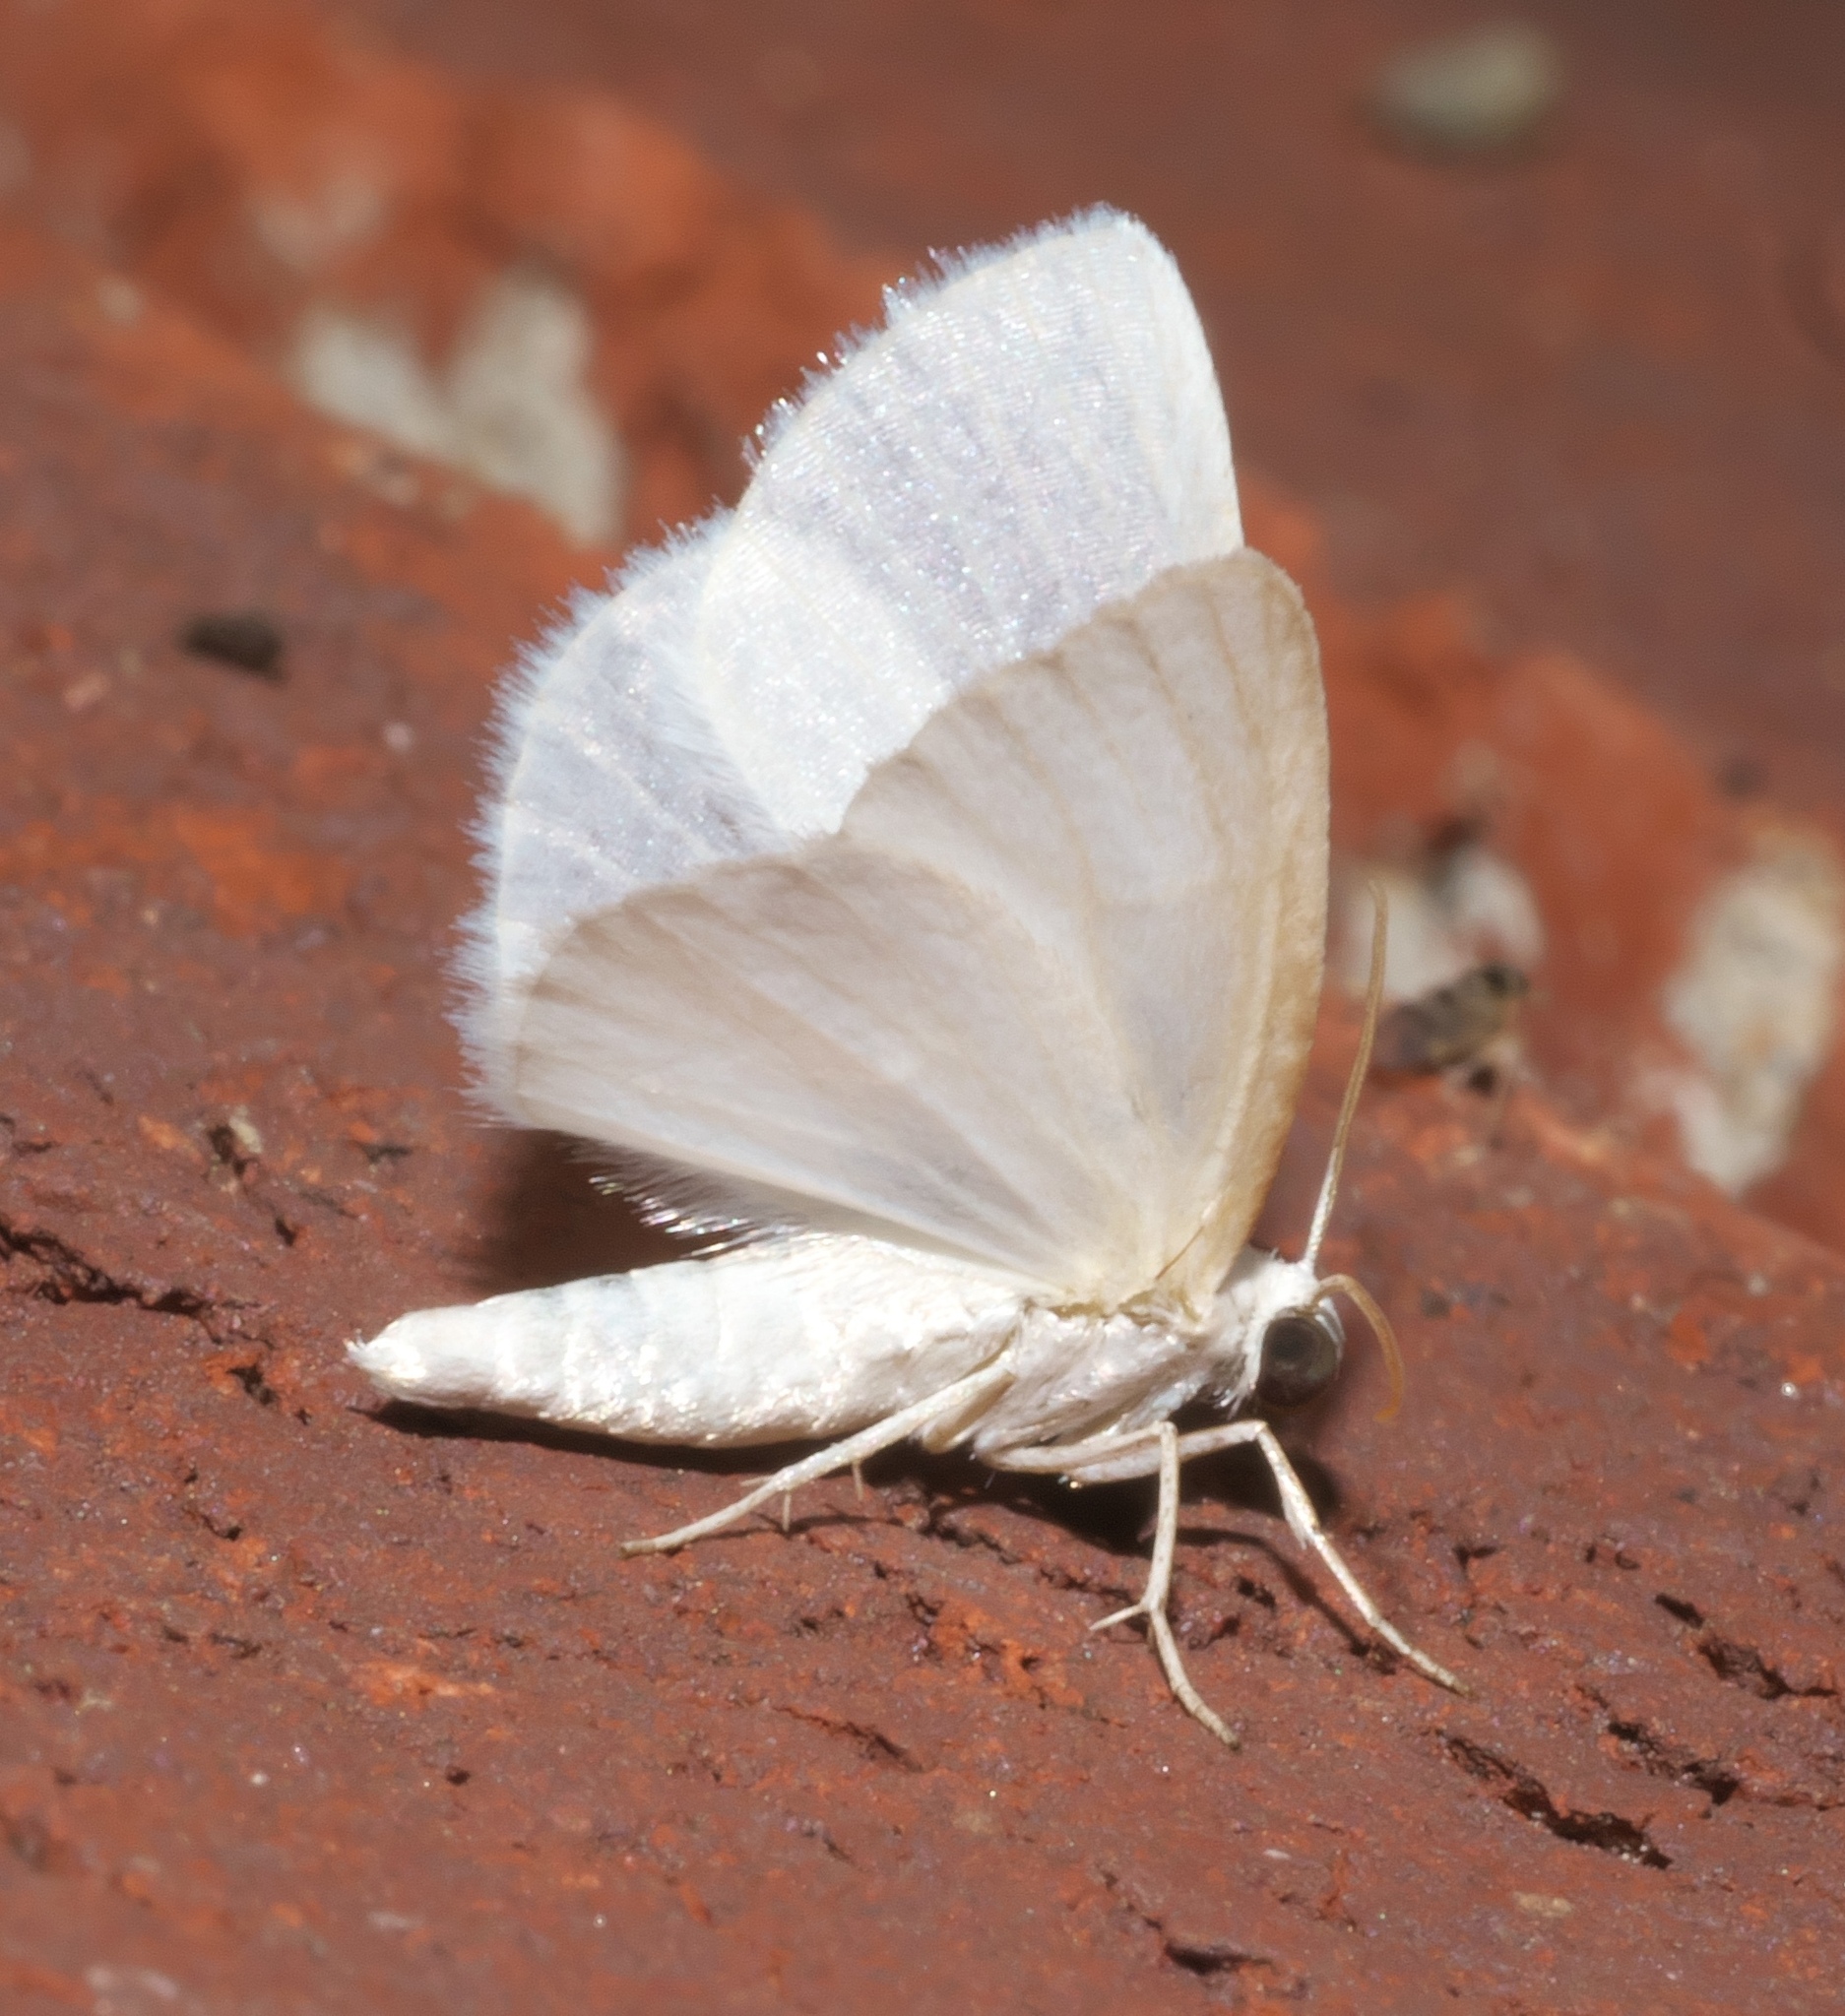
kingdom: Animalia
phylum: Arthropoda
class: Insecta
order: Lepidoptera
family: Geometridae
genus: Lomographa
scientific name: Lomographa vestaliata
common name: White spring moth
